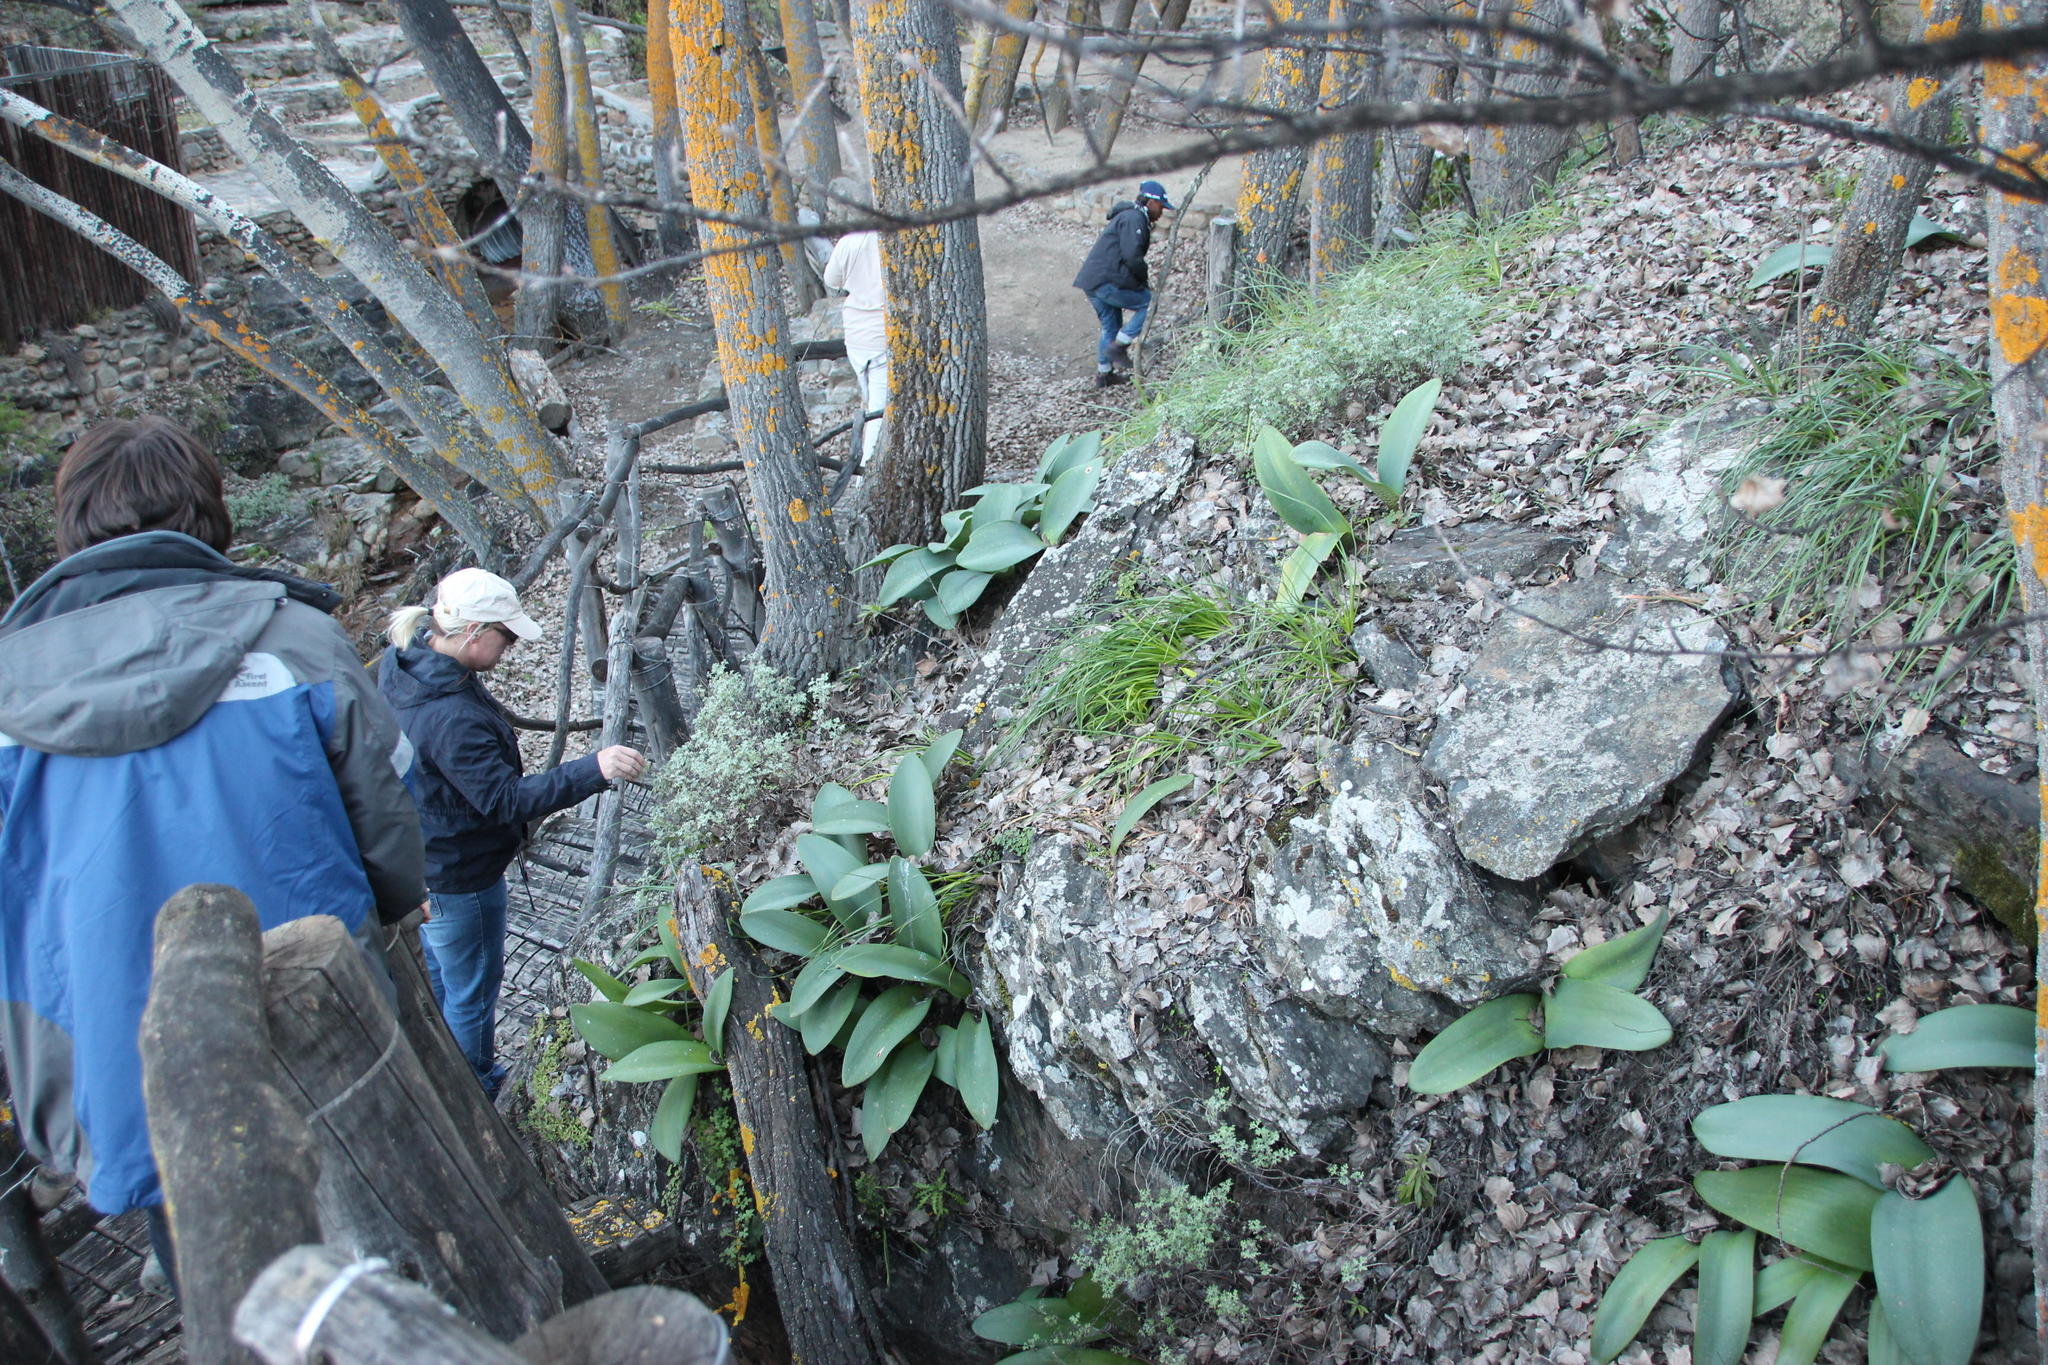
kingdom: Plantae
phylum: Tracheophyta
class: Liliopsida
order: Asparagales
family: Amaryllidaceae
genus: Haemanthus
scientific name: Haemanthus coccineus
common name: Cape-tulip
